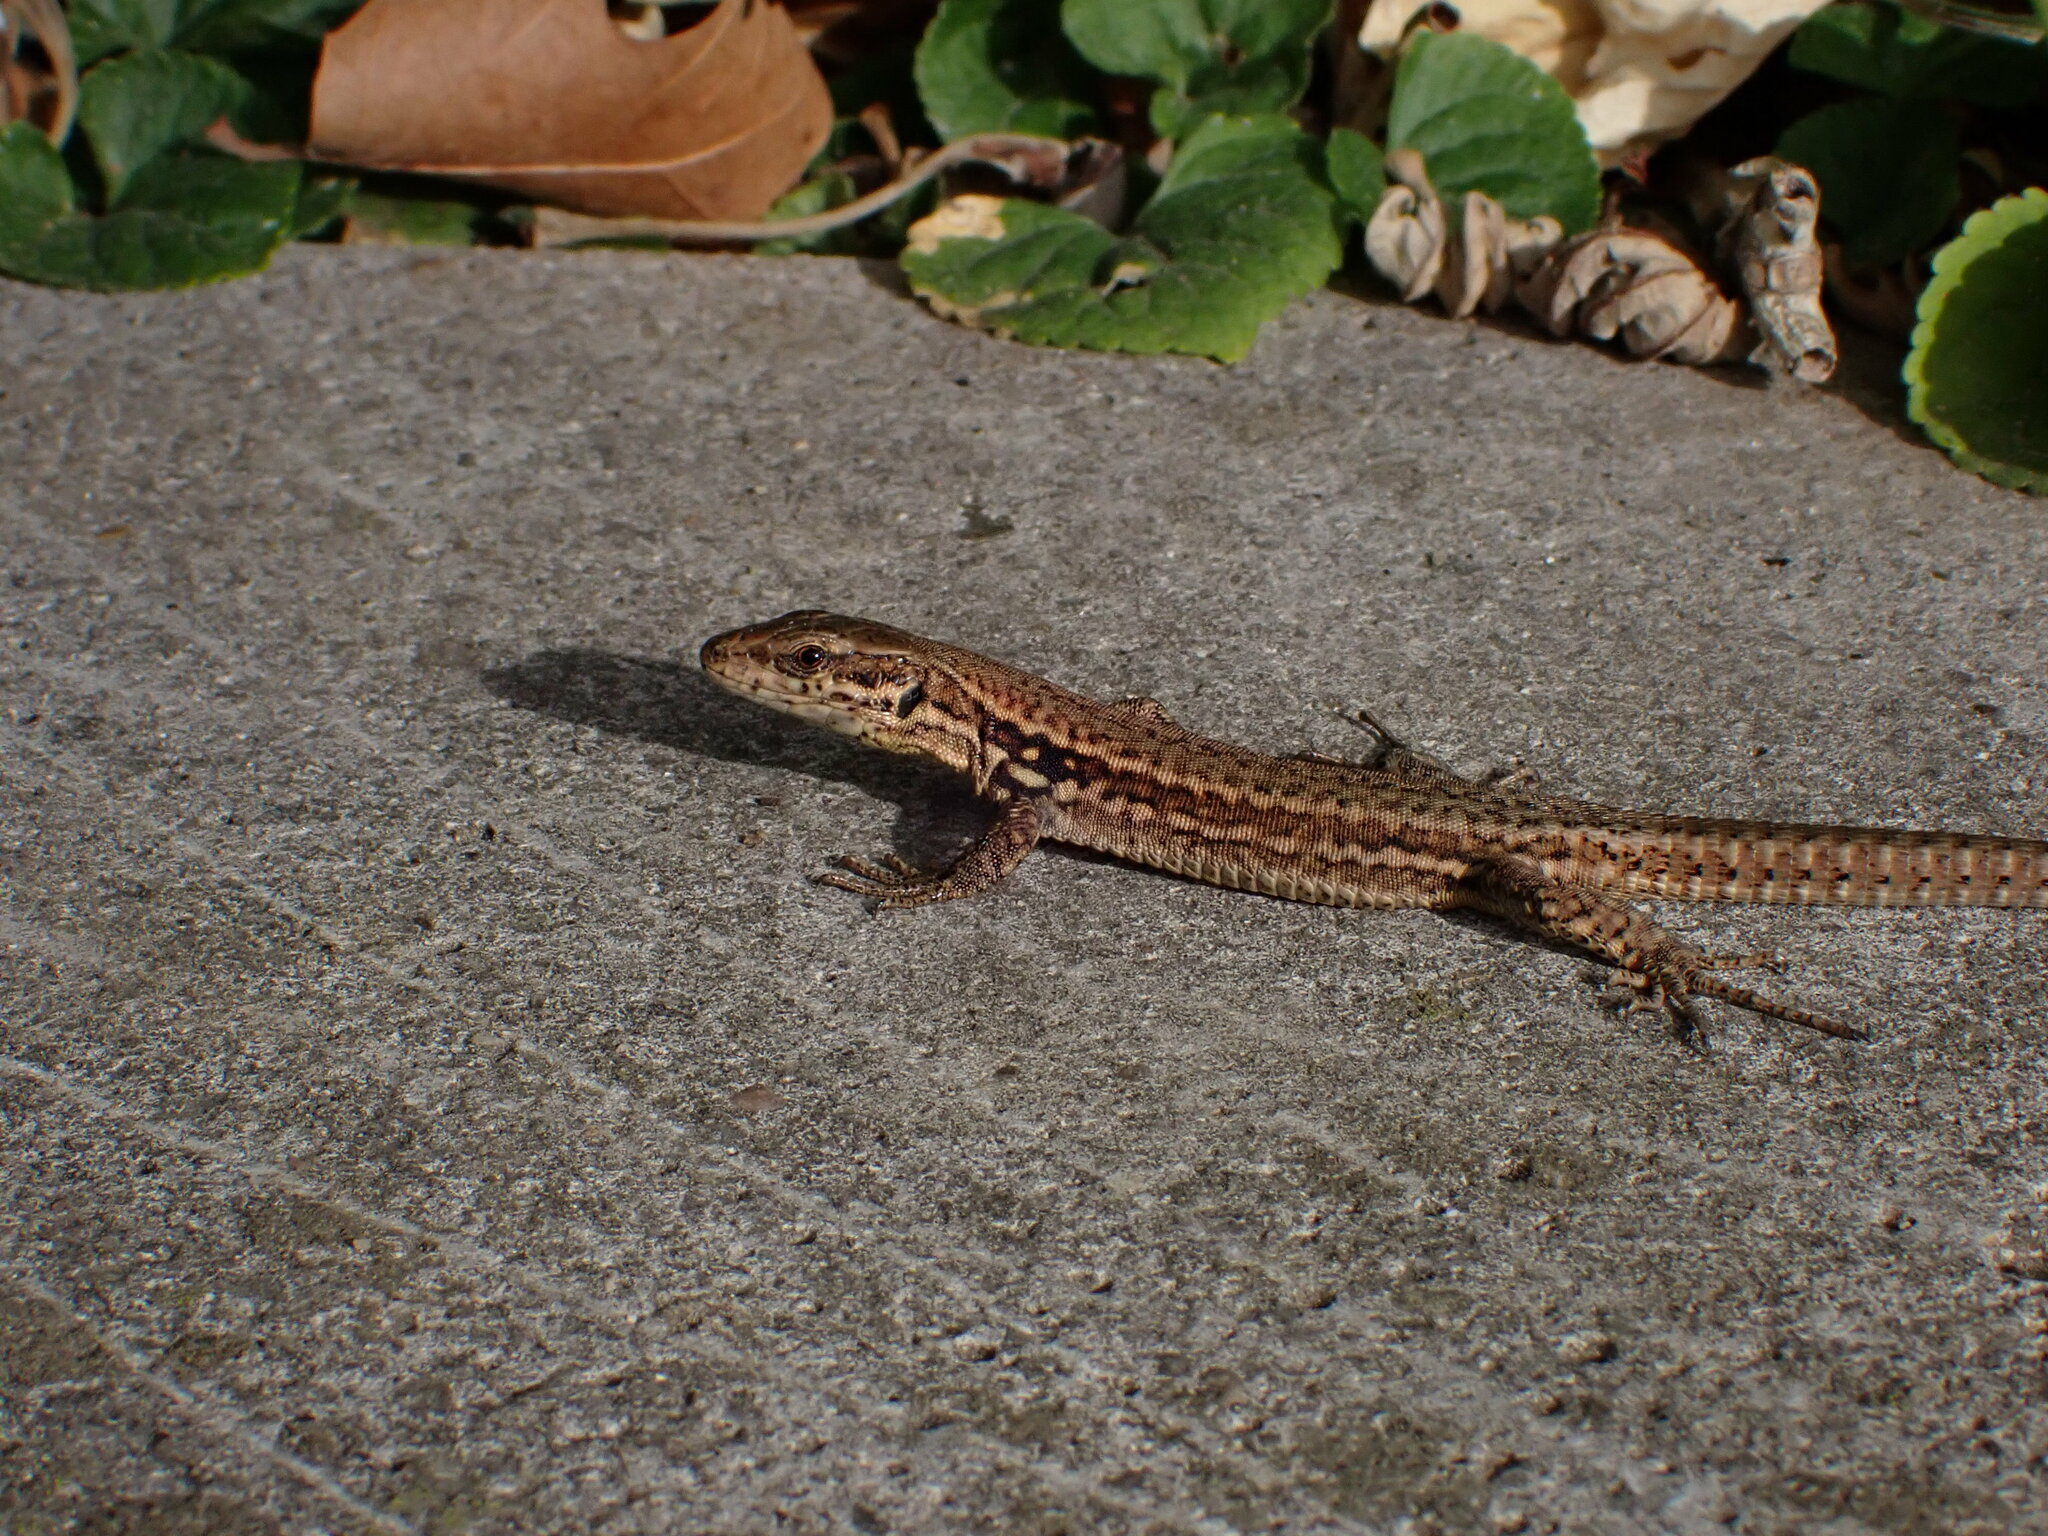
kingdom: Animalia
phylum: Chordata
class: Squamata
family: Lacertidae
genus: Podarcis
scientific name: Podarcis muralis
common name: Common wall lizard
